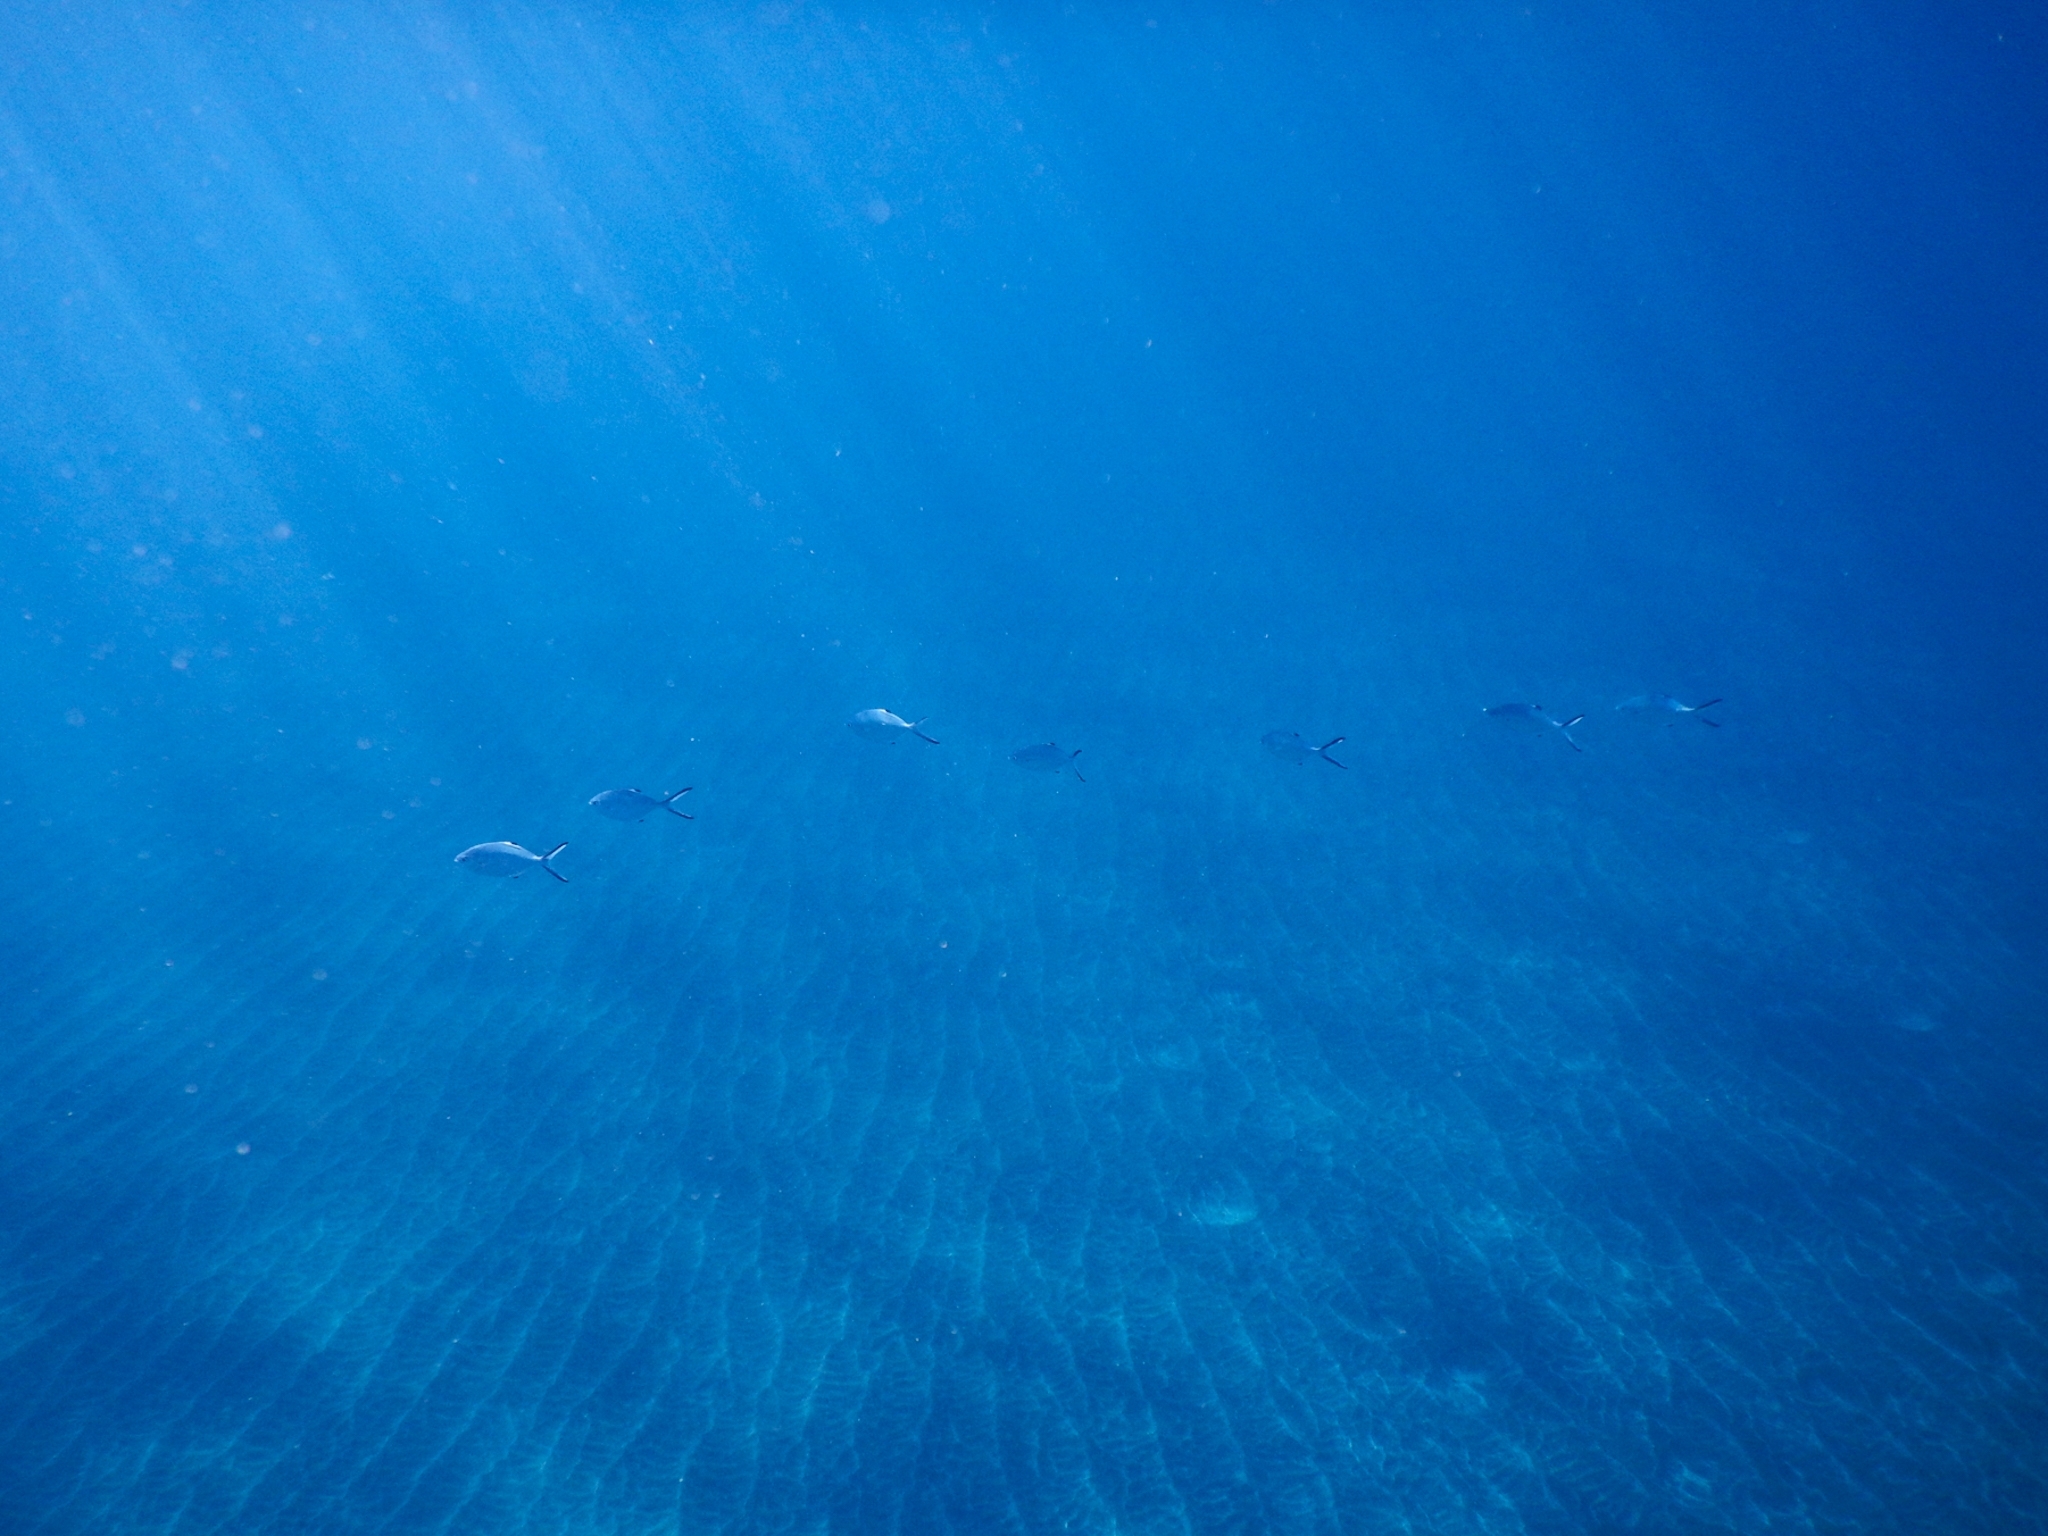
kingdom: Animalia
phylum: Chordata
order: Perciformes
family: Carangidae
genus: Trachinotus
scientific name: Trachinotus ovatus
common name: Pompano
